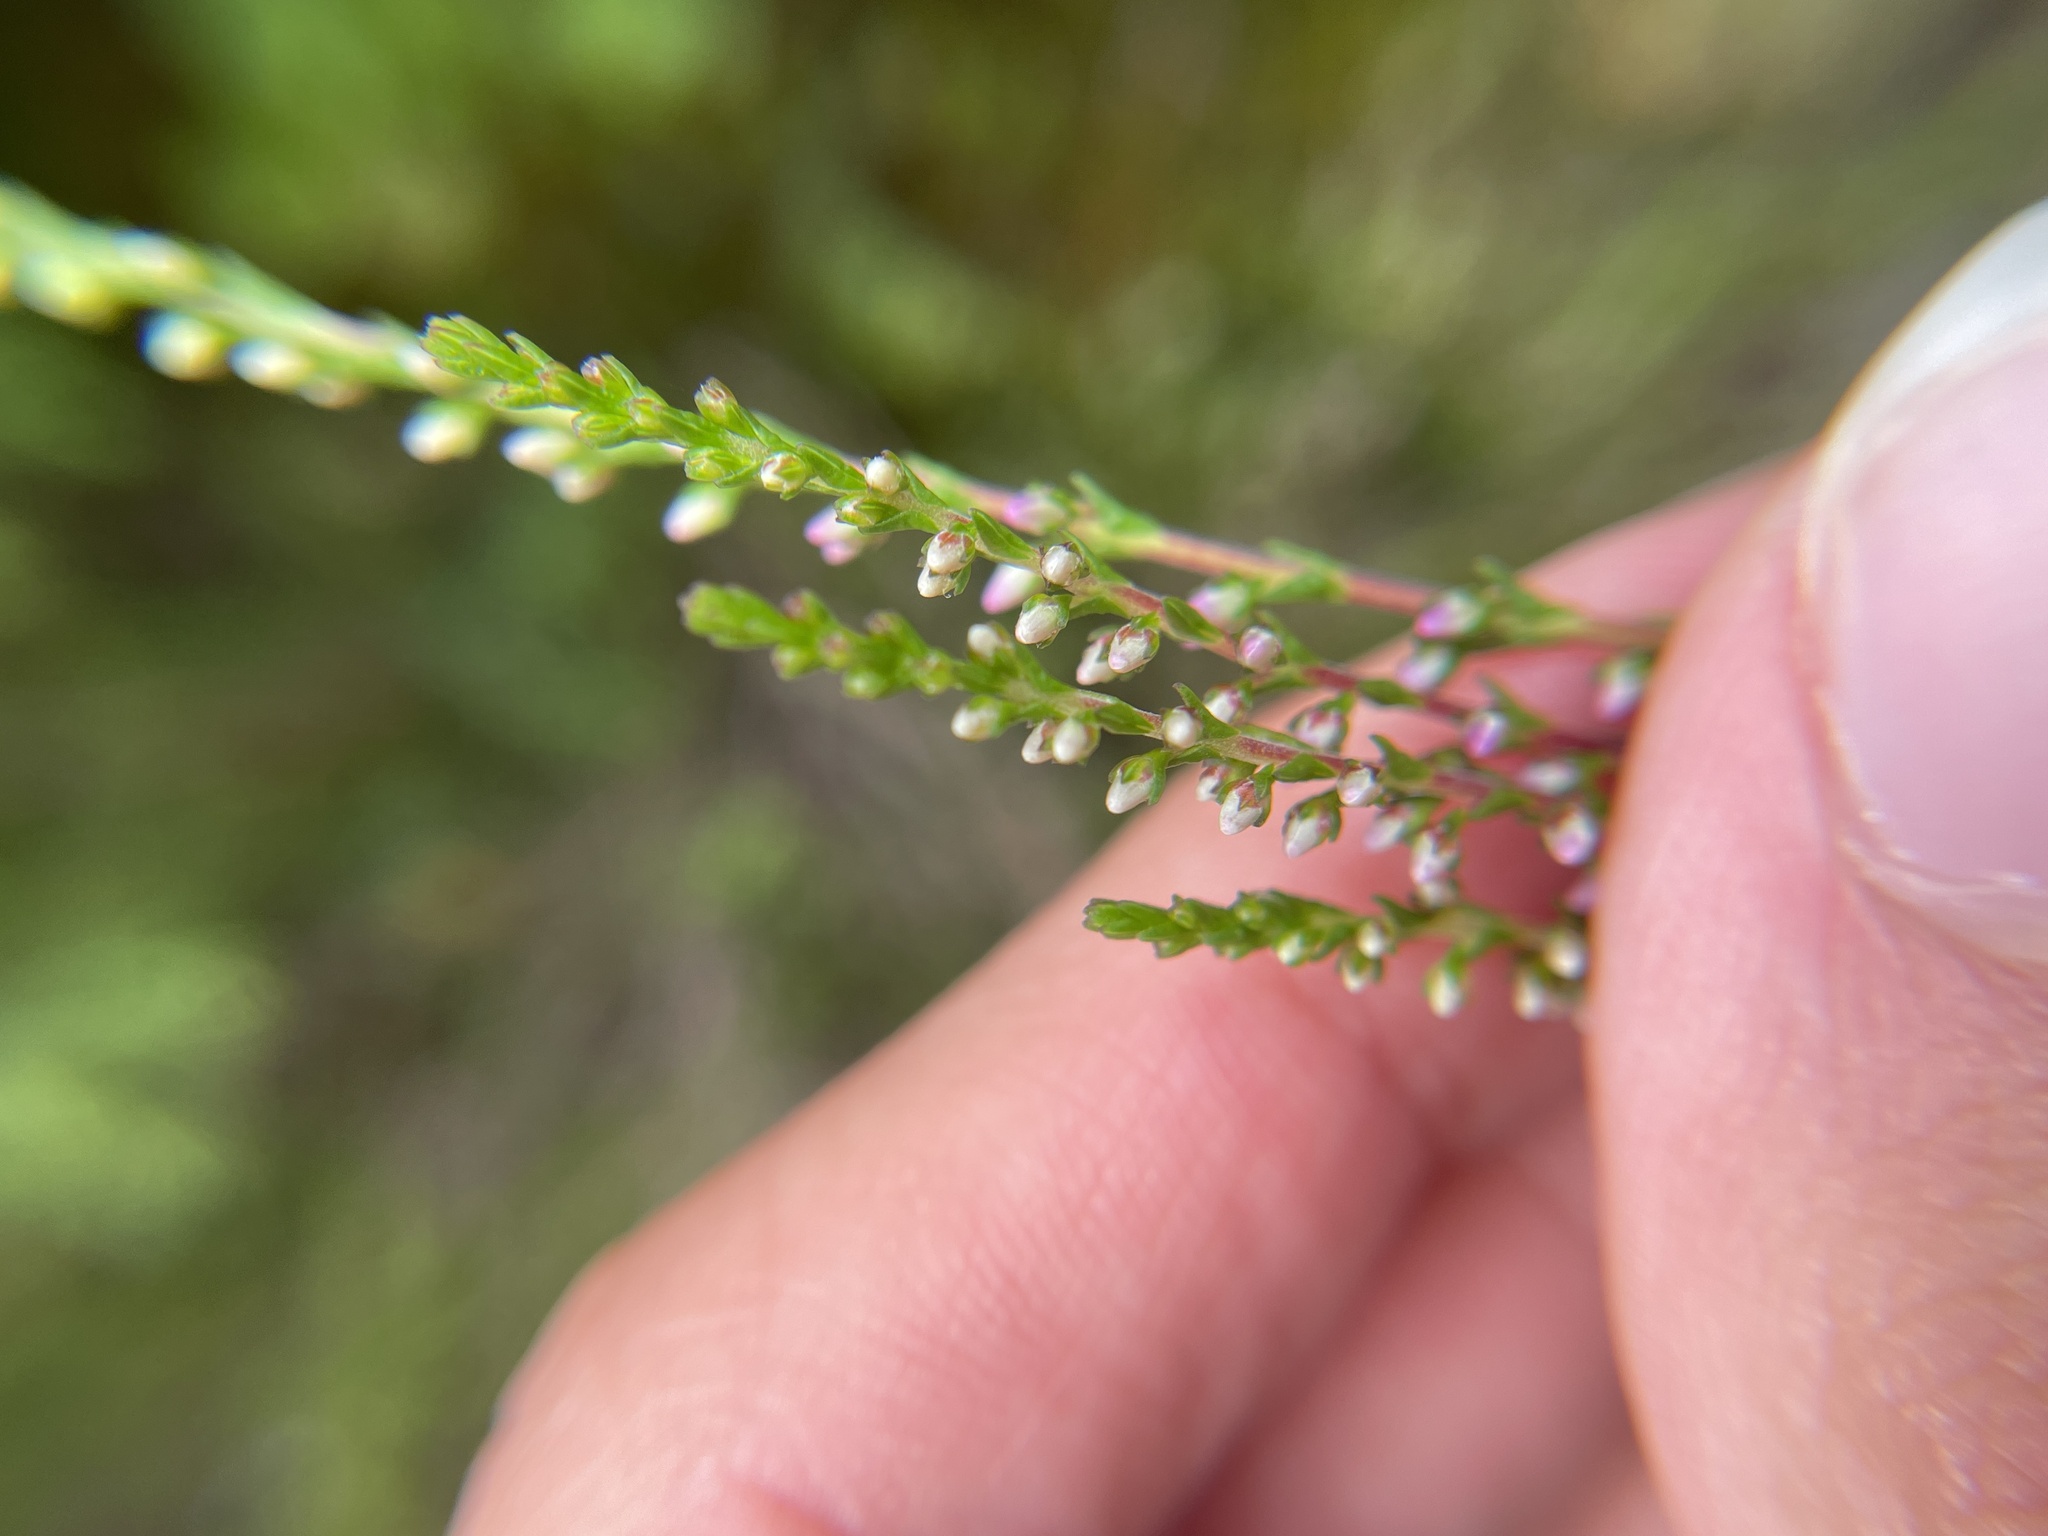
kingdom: Plantae
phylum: Tracheophyta
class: Magnoliopsida
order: Ericales
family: Ericaceae
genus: Calluna
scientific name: Calluna vulgaris
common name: Heather
